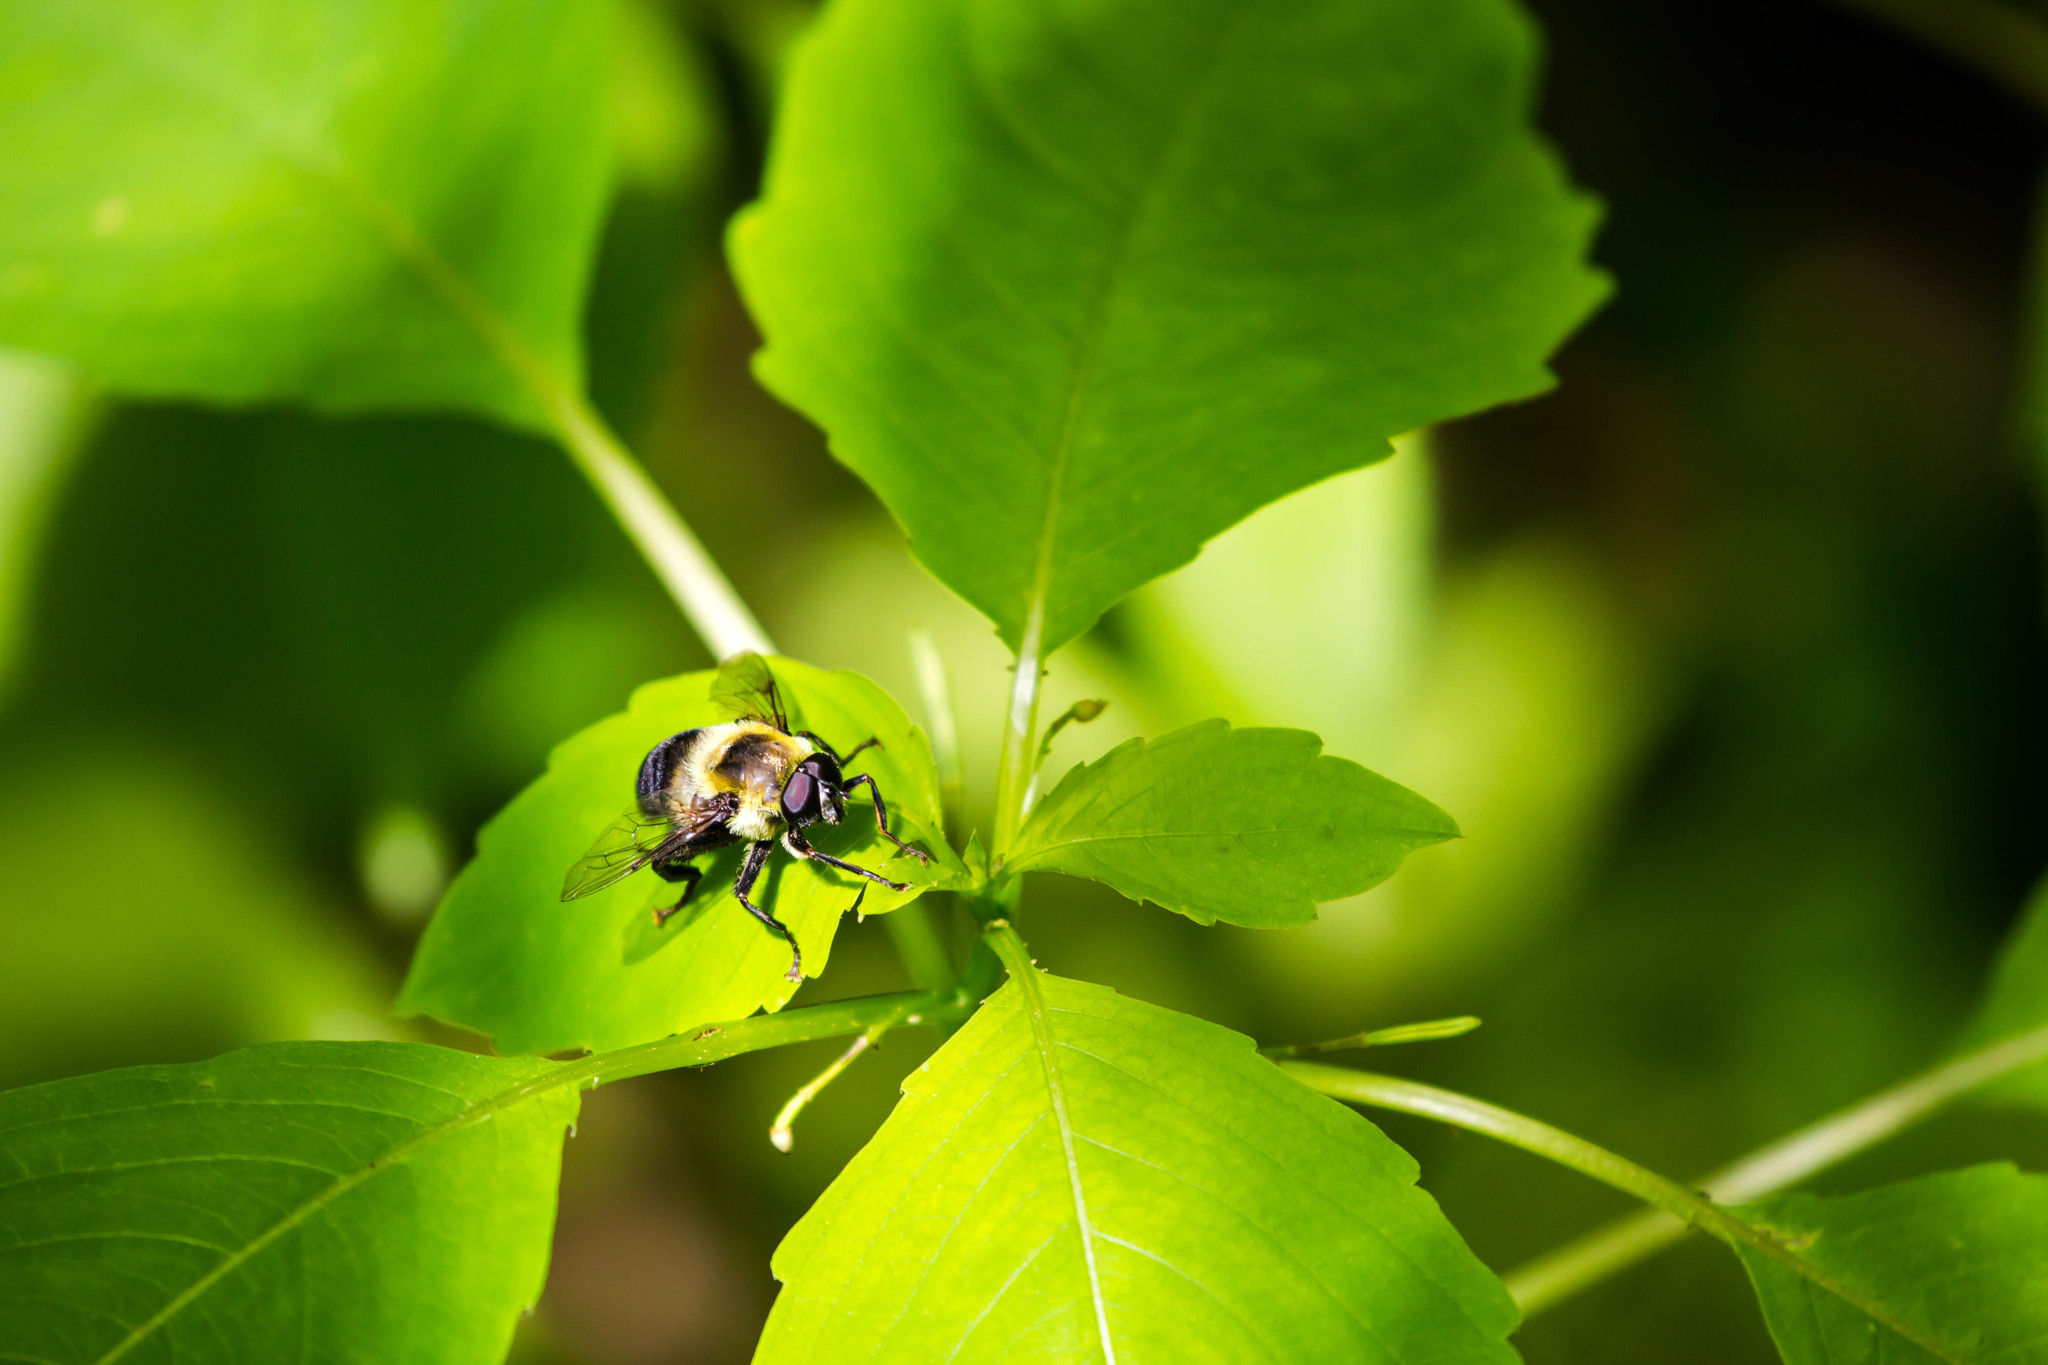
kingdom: Animalia
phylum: Arthropoda
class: Insecta
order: Diptera
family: Syrphidae
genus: Imatisma
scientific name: Imatisma posticata
